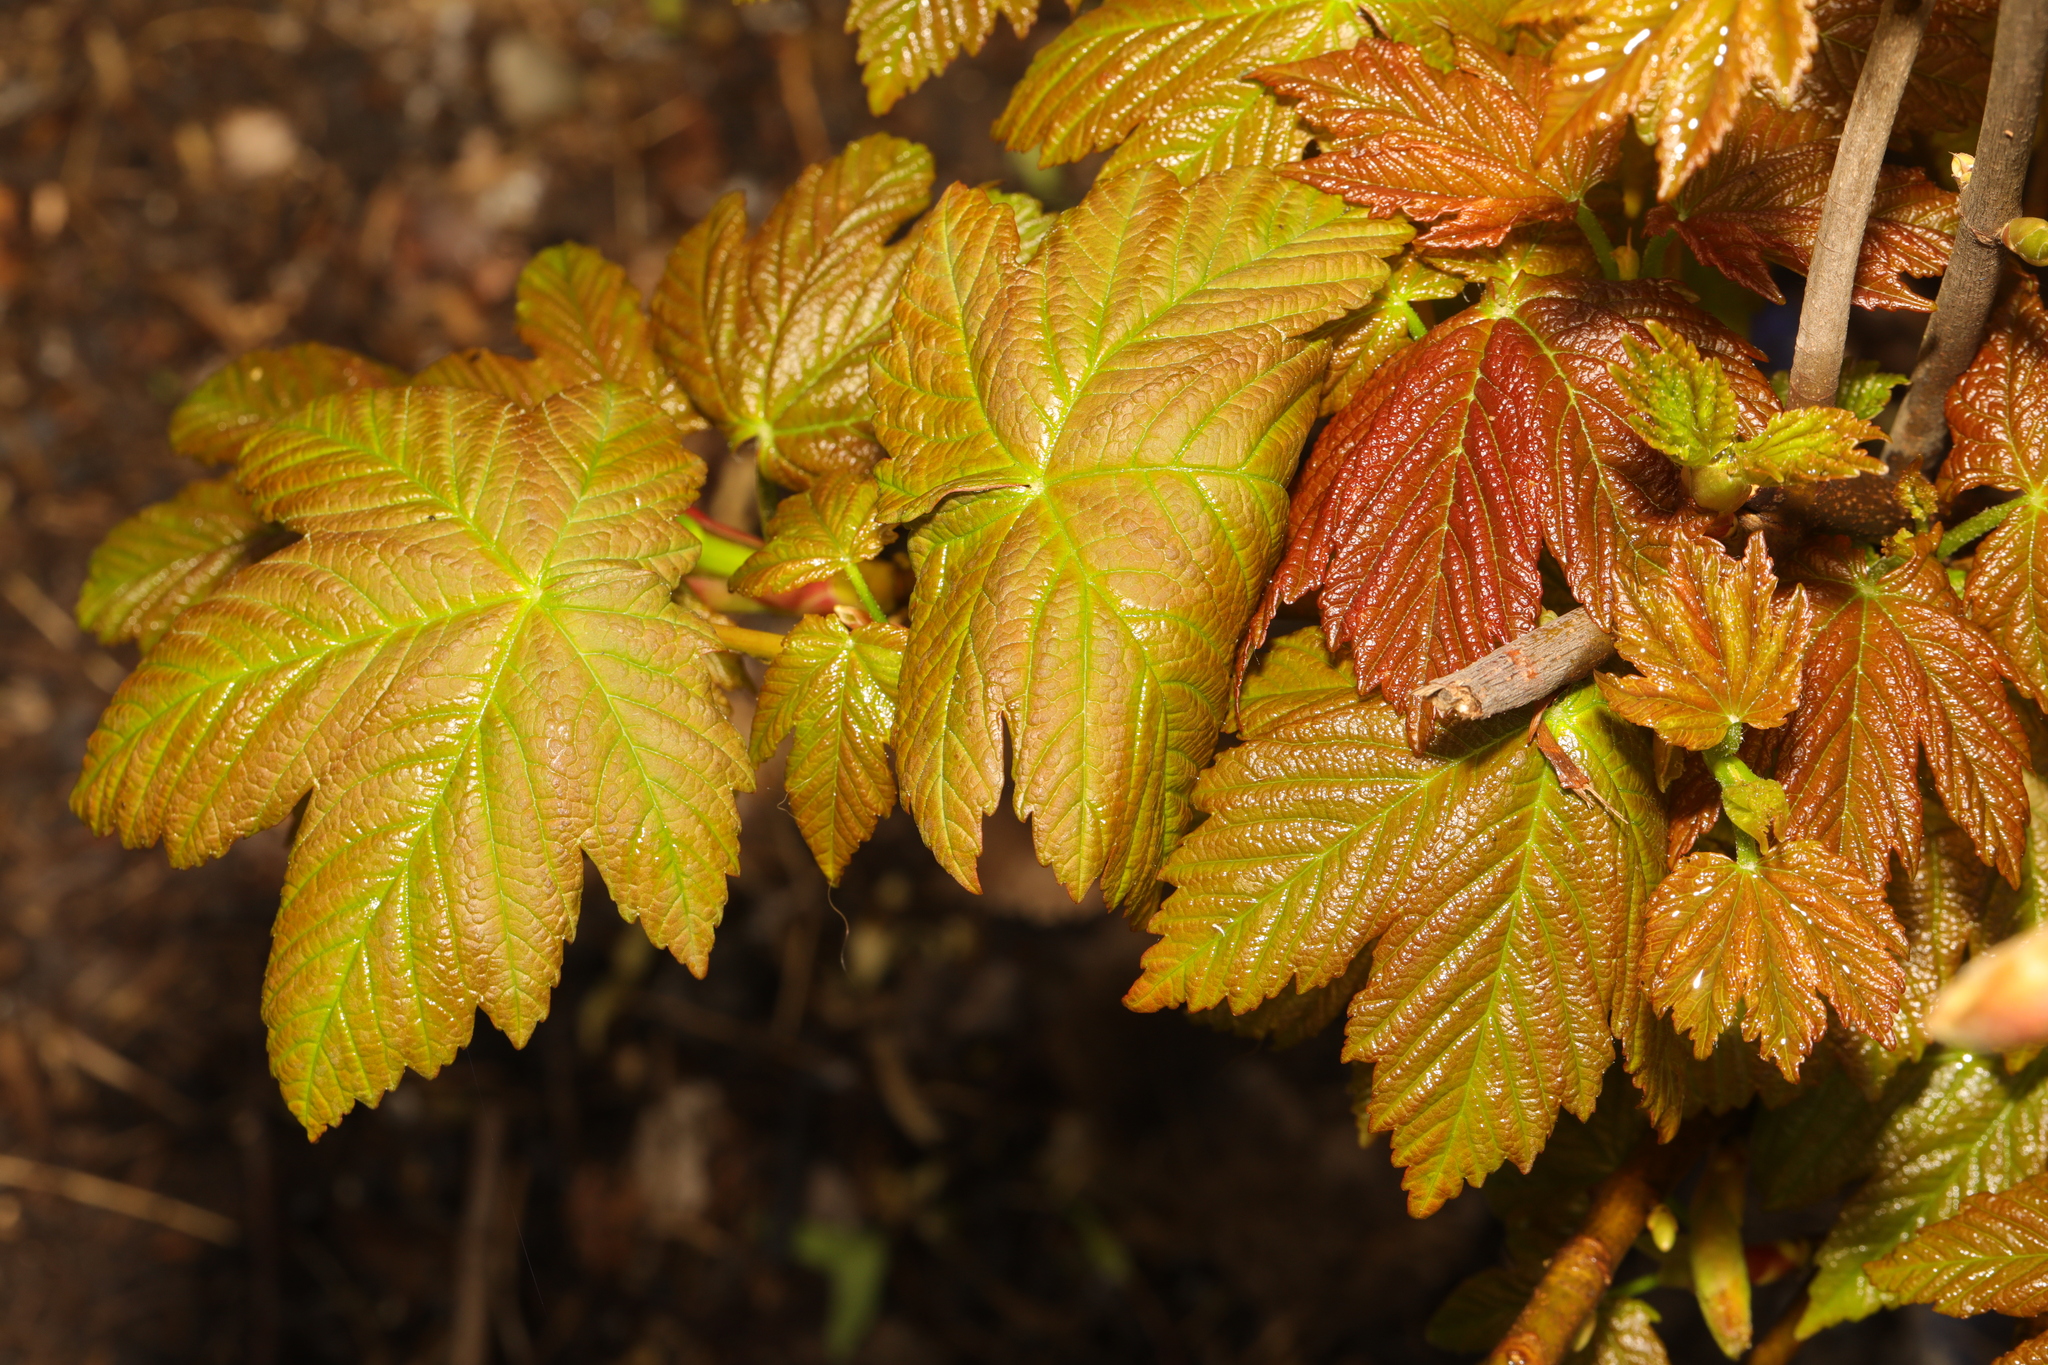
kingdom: Plantae
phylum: Tracheophyta
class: Magnoliopsida
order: Sapindales
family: Sapindaceae
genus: Acer
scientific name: Acer pseudoplatanus
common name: Sycamore
